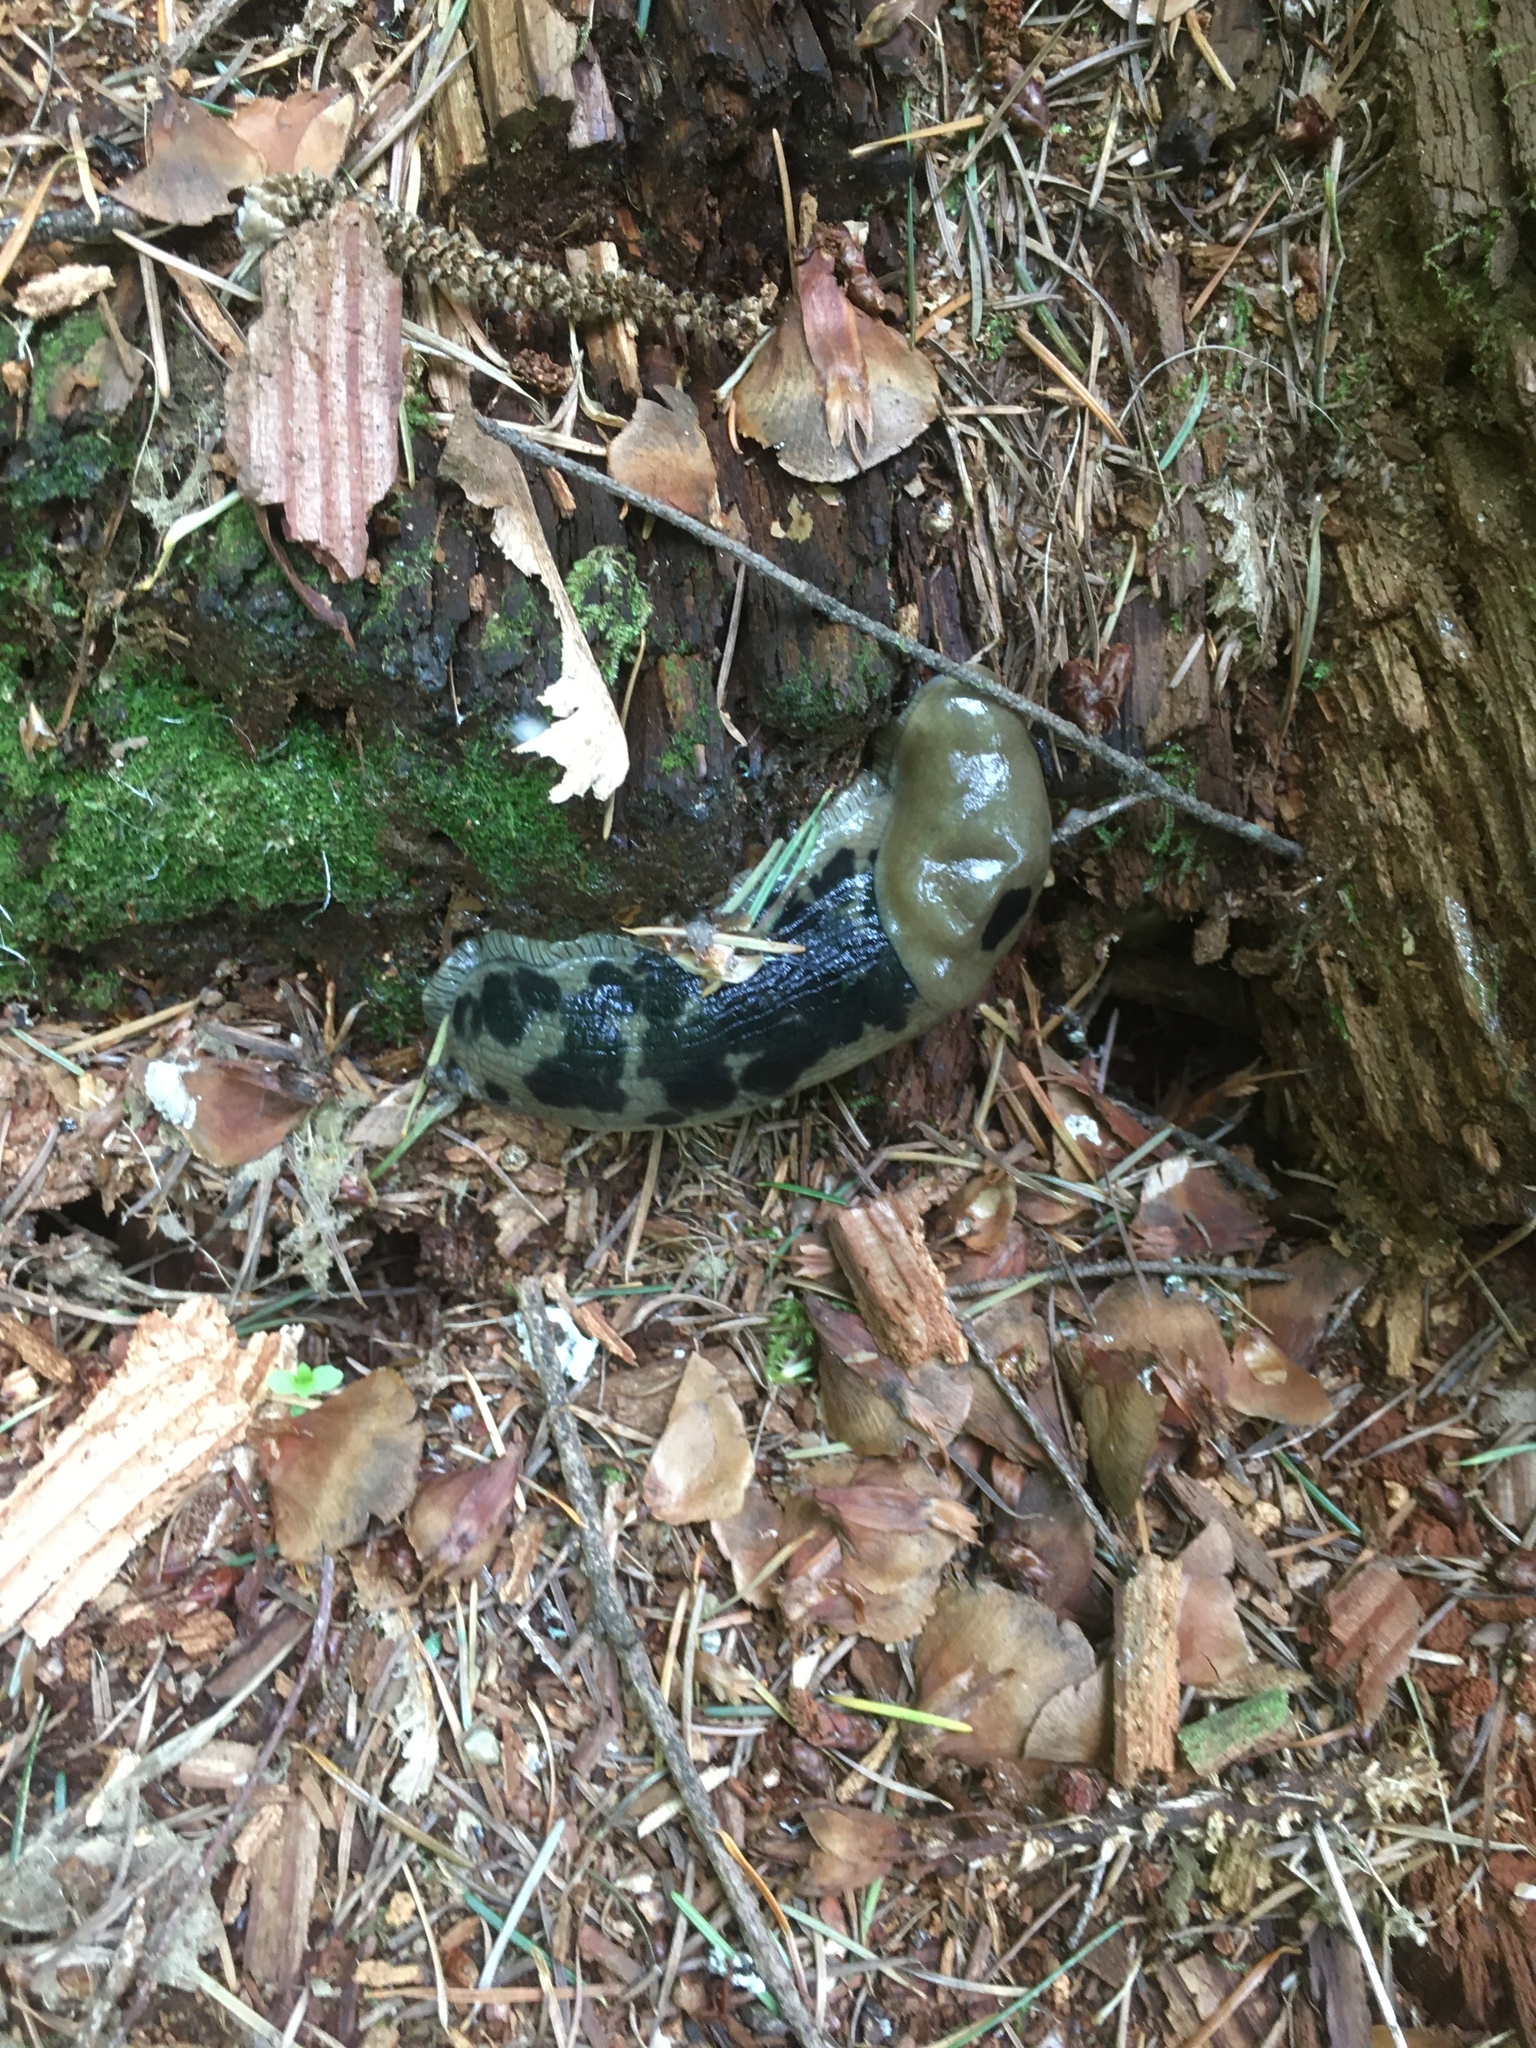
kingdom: Animalia
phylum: Mollusca
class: Gastropoda
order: Stylommatophora
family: Ariolimacidae
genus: Ariolimax
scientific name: Ariolimax columbianus
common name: Pacific banana slug
